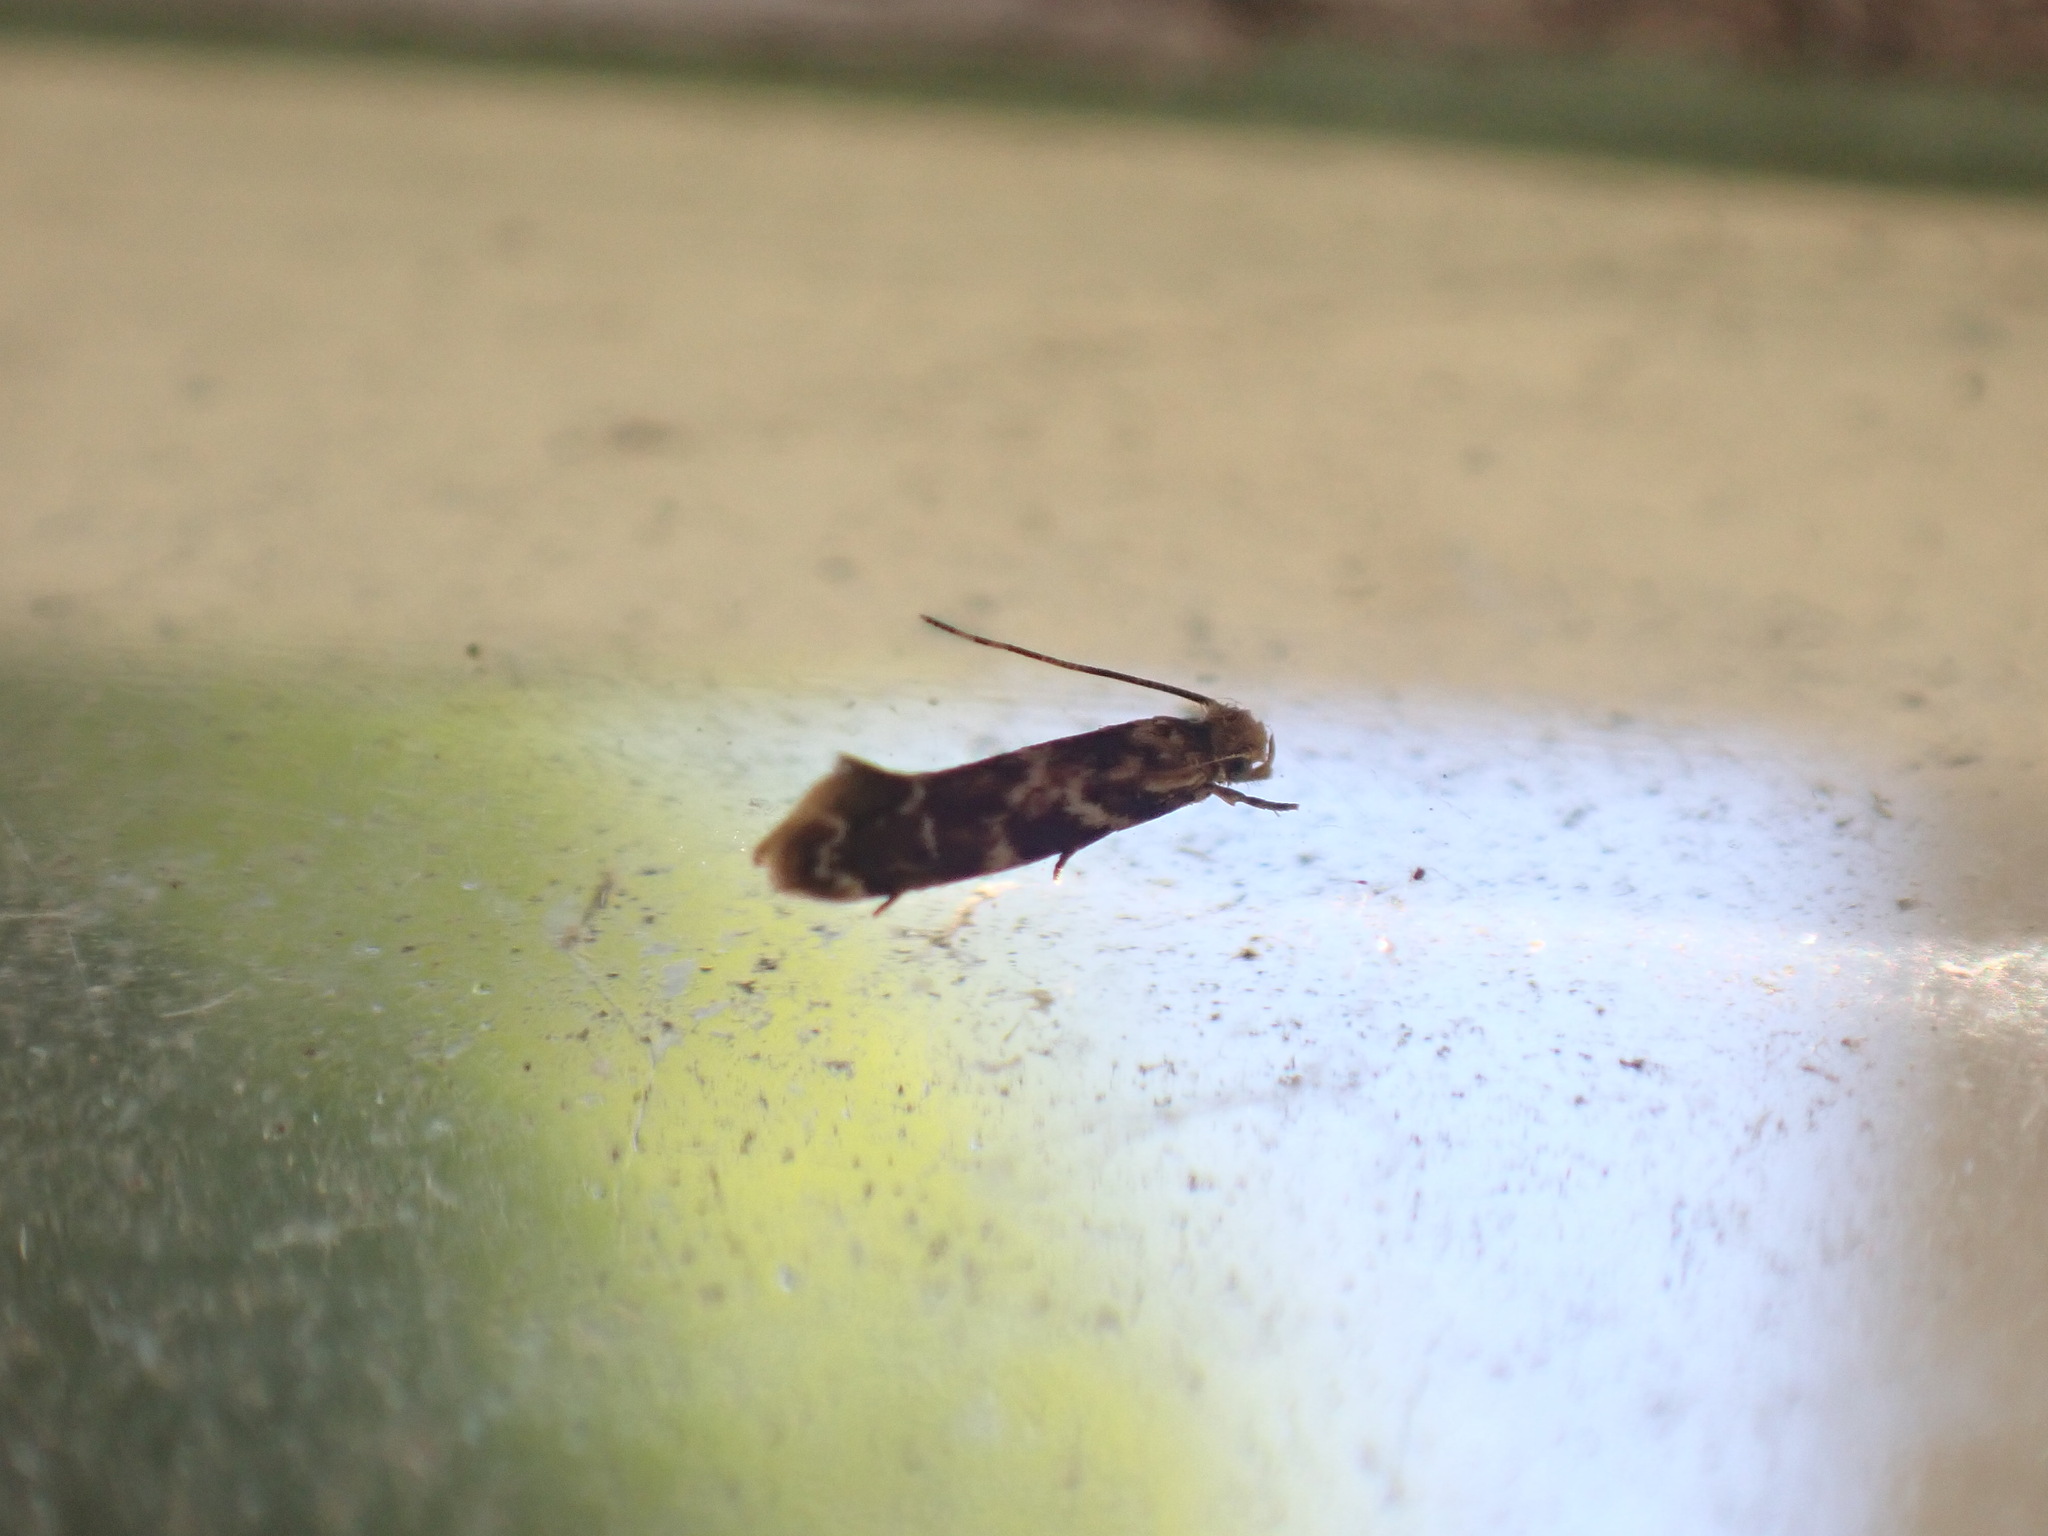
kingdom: Animalia
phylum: Arthropoda
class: Insecta
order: Lepidoptera
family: Dryadaulidae
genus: Dryadaula
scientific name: Dryadaula pactolia
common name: Cellar clothes
